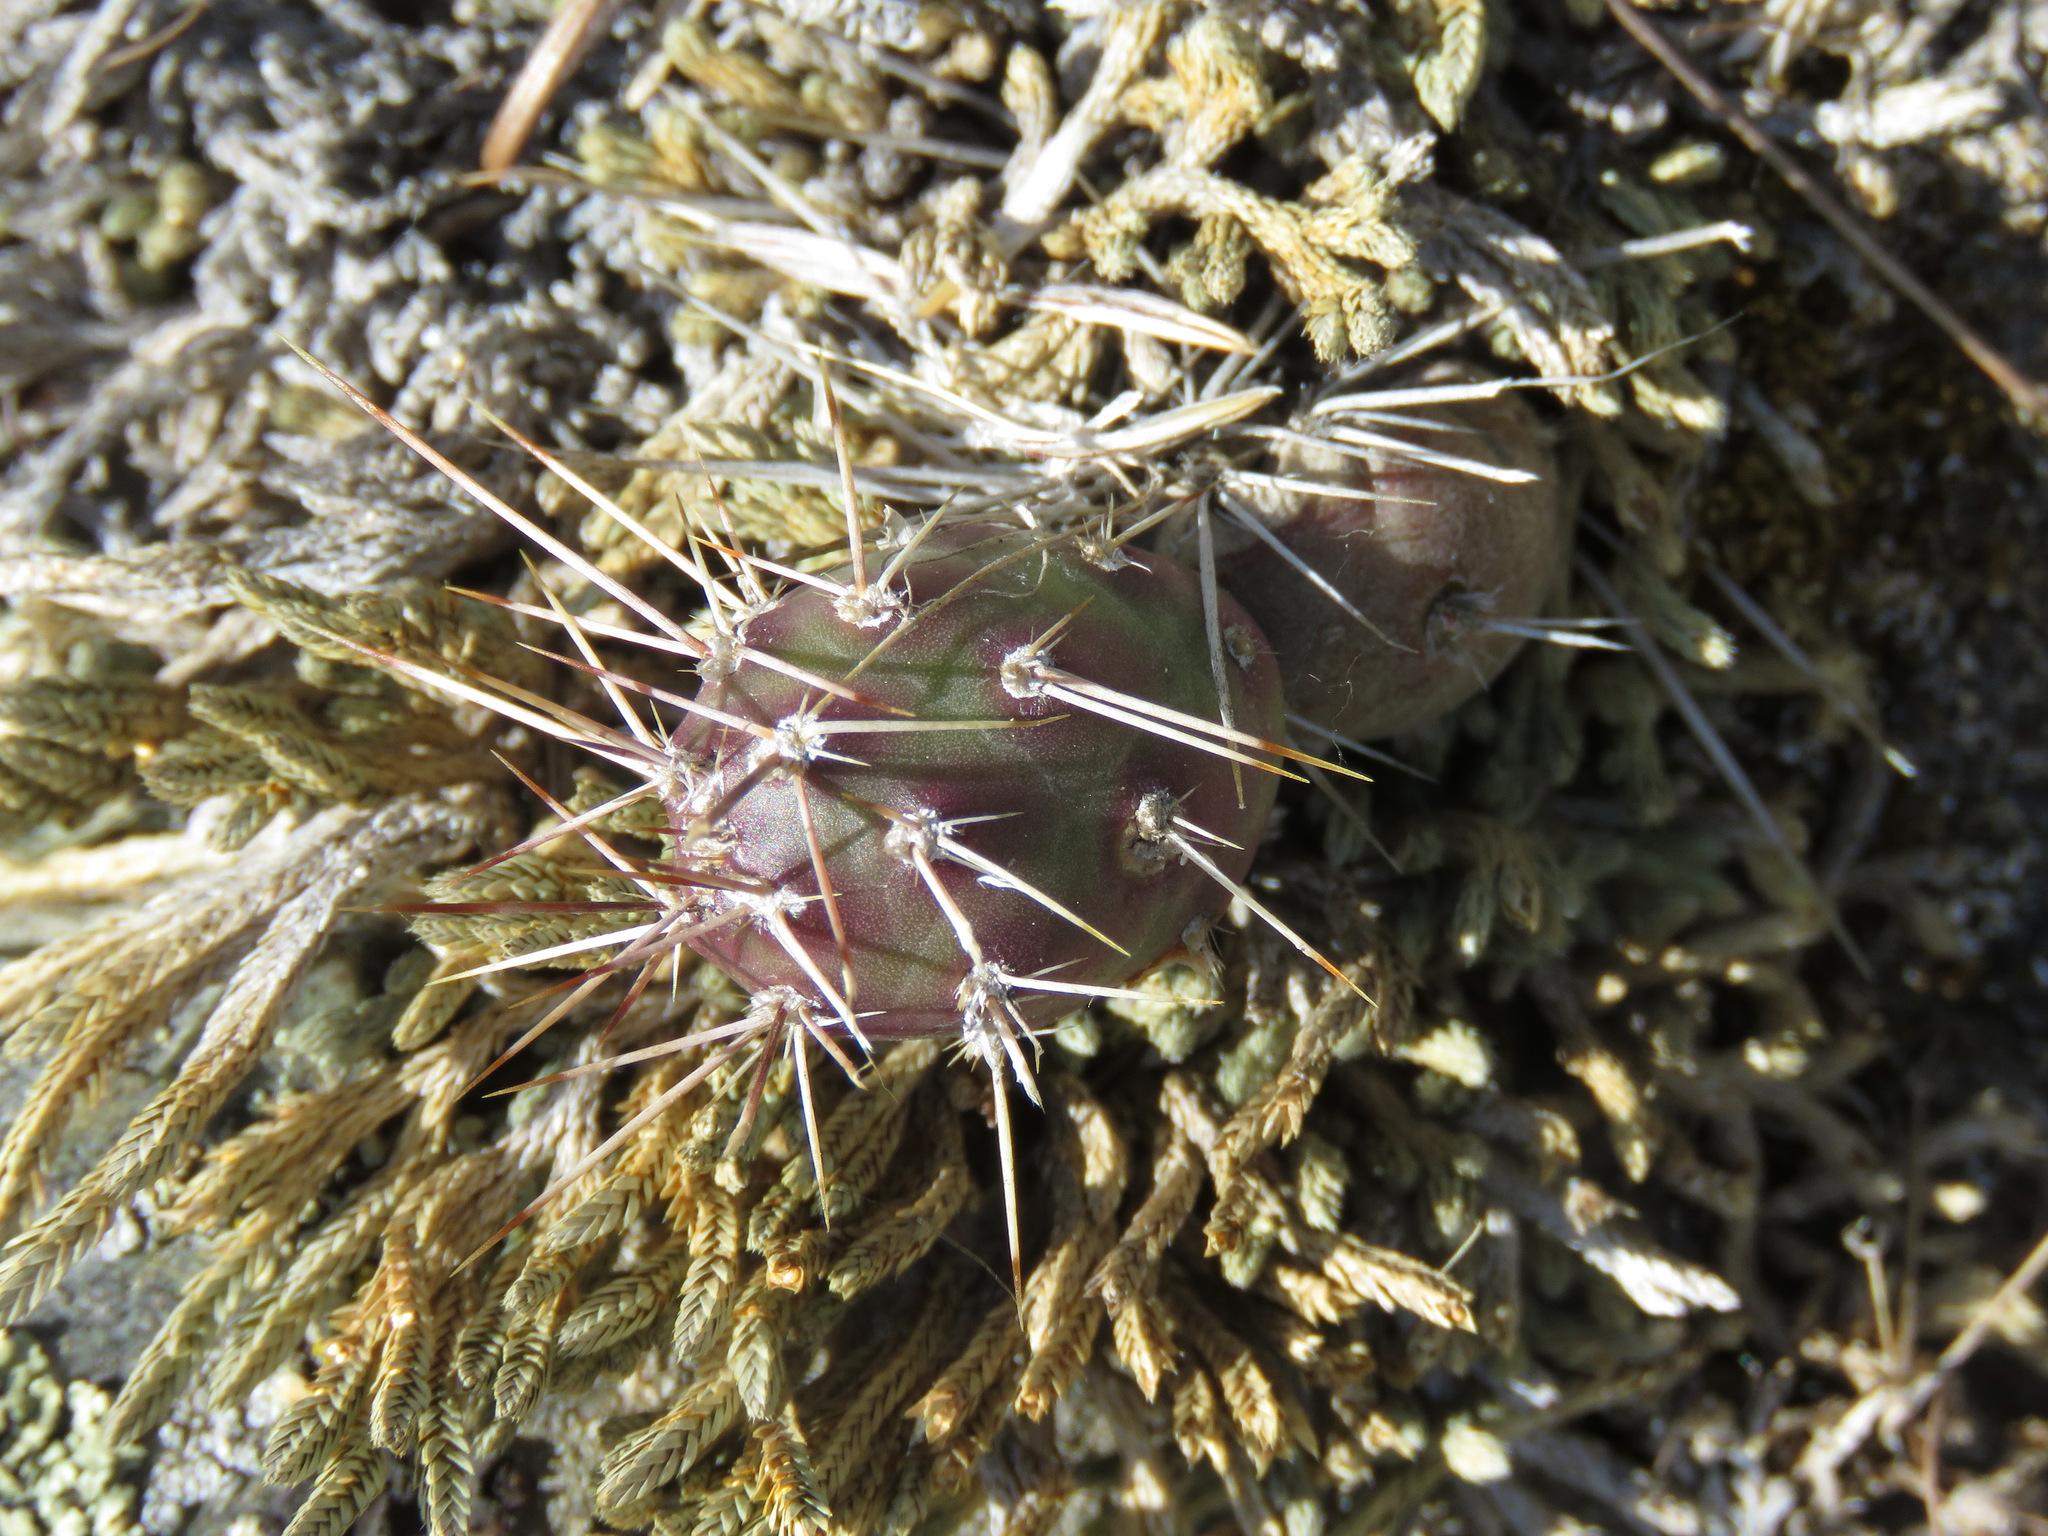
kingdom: Plantae
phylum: Tracheophyta
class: Magnoliopsida
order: Caryophyllales
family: Cactaceae
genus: Opuntia
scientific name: Opuntia fragilis
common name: Brittle cactus
